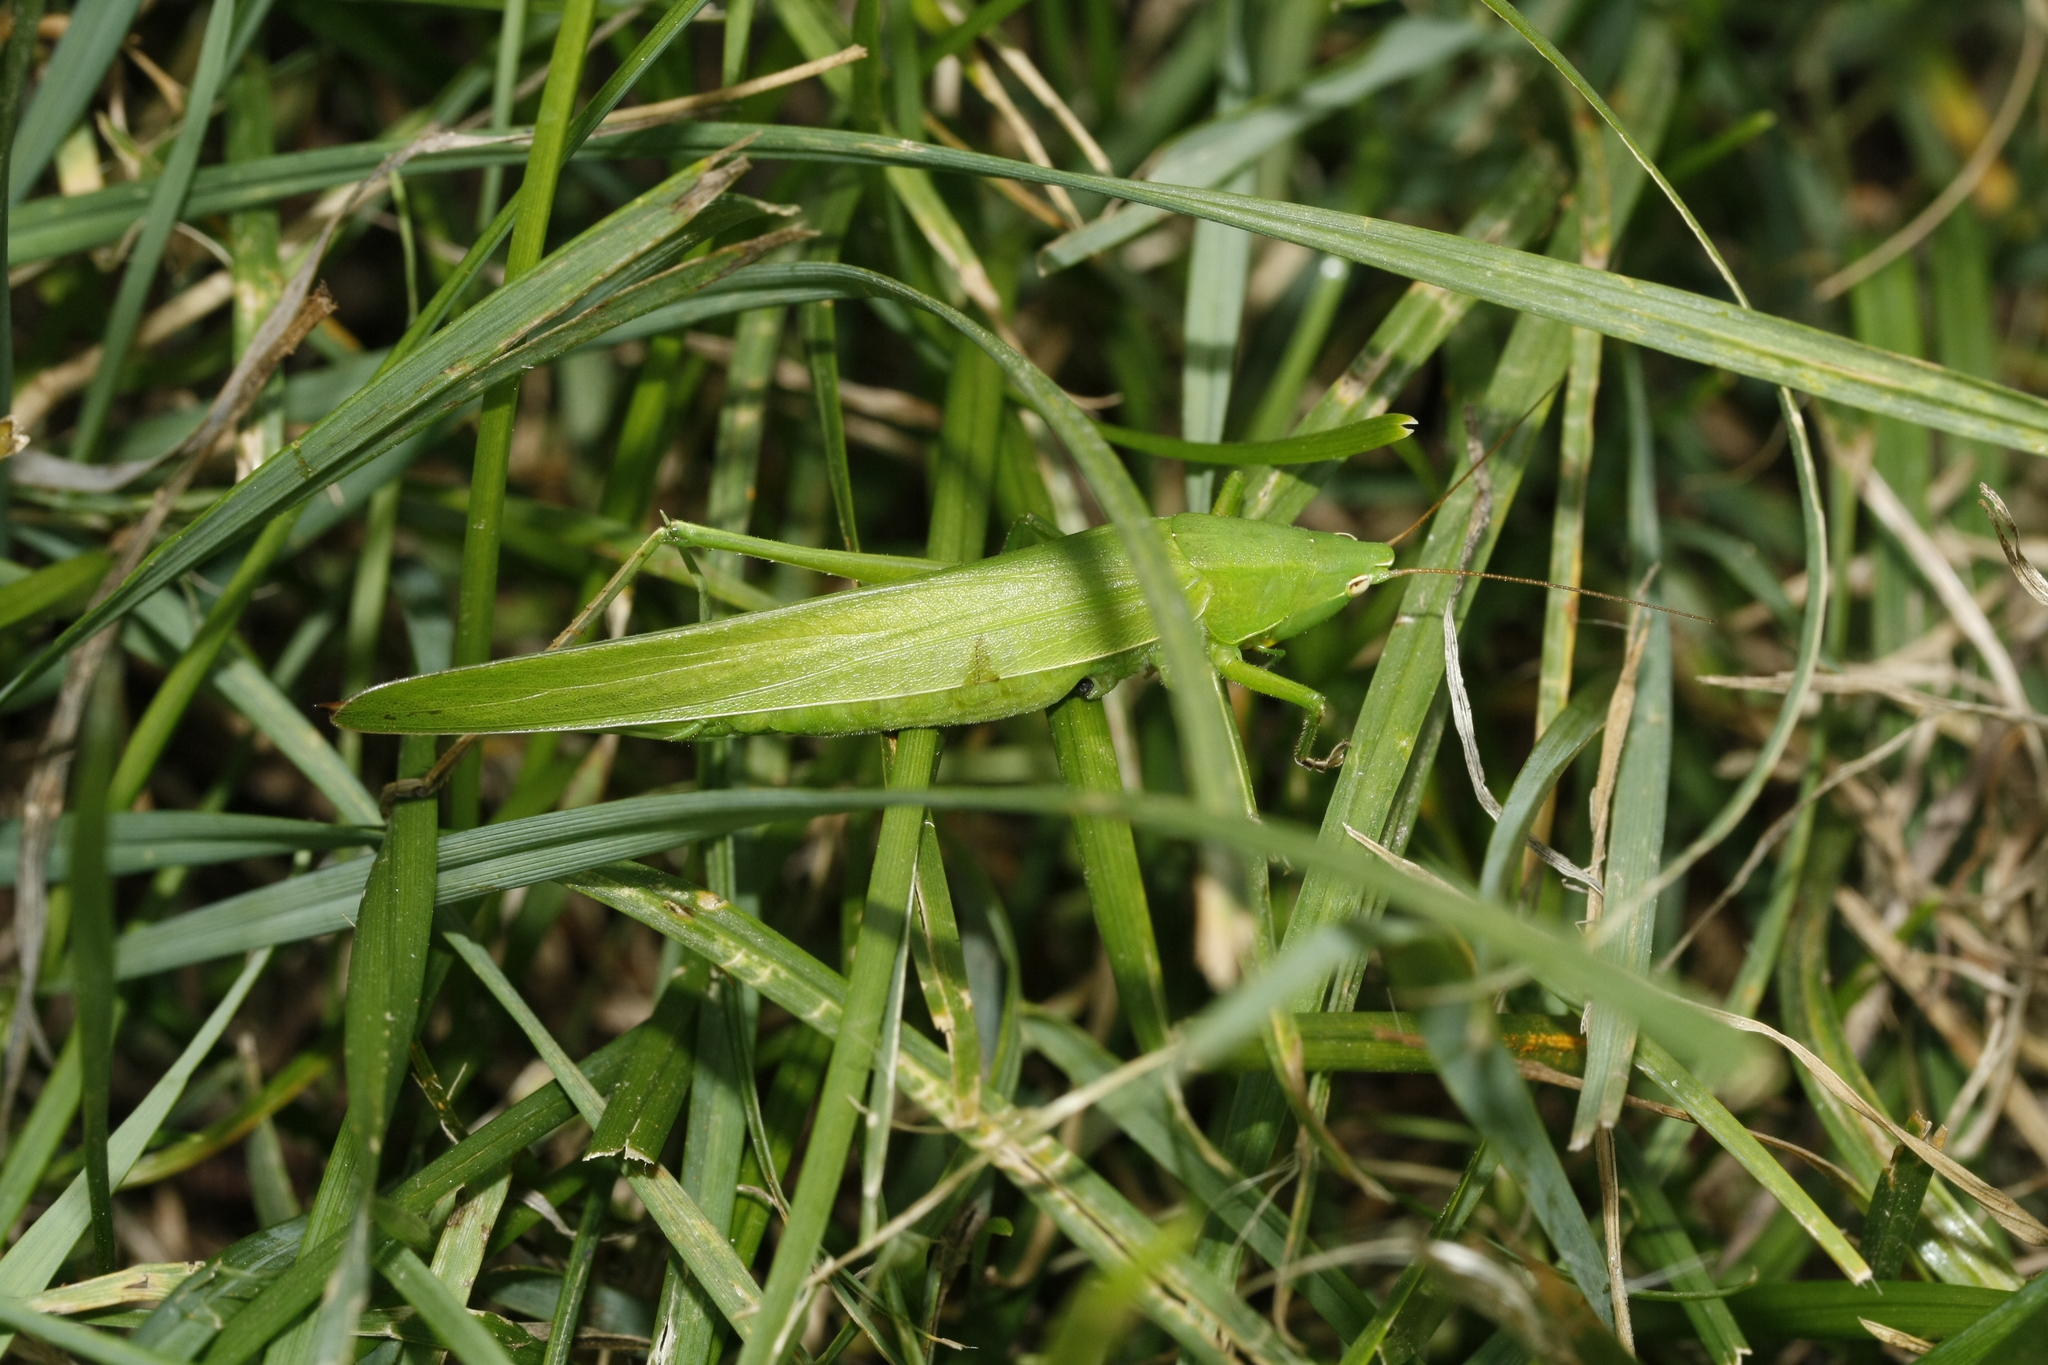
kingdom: Animalia
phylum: Arthropoda
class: Insecta
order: Orthoptera
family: Tettigoniidae
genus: Ruspolia
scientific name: Ruspolia nitidula
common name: Large conehead
